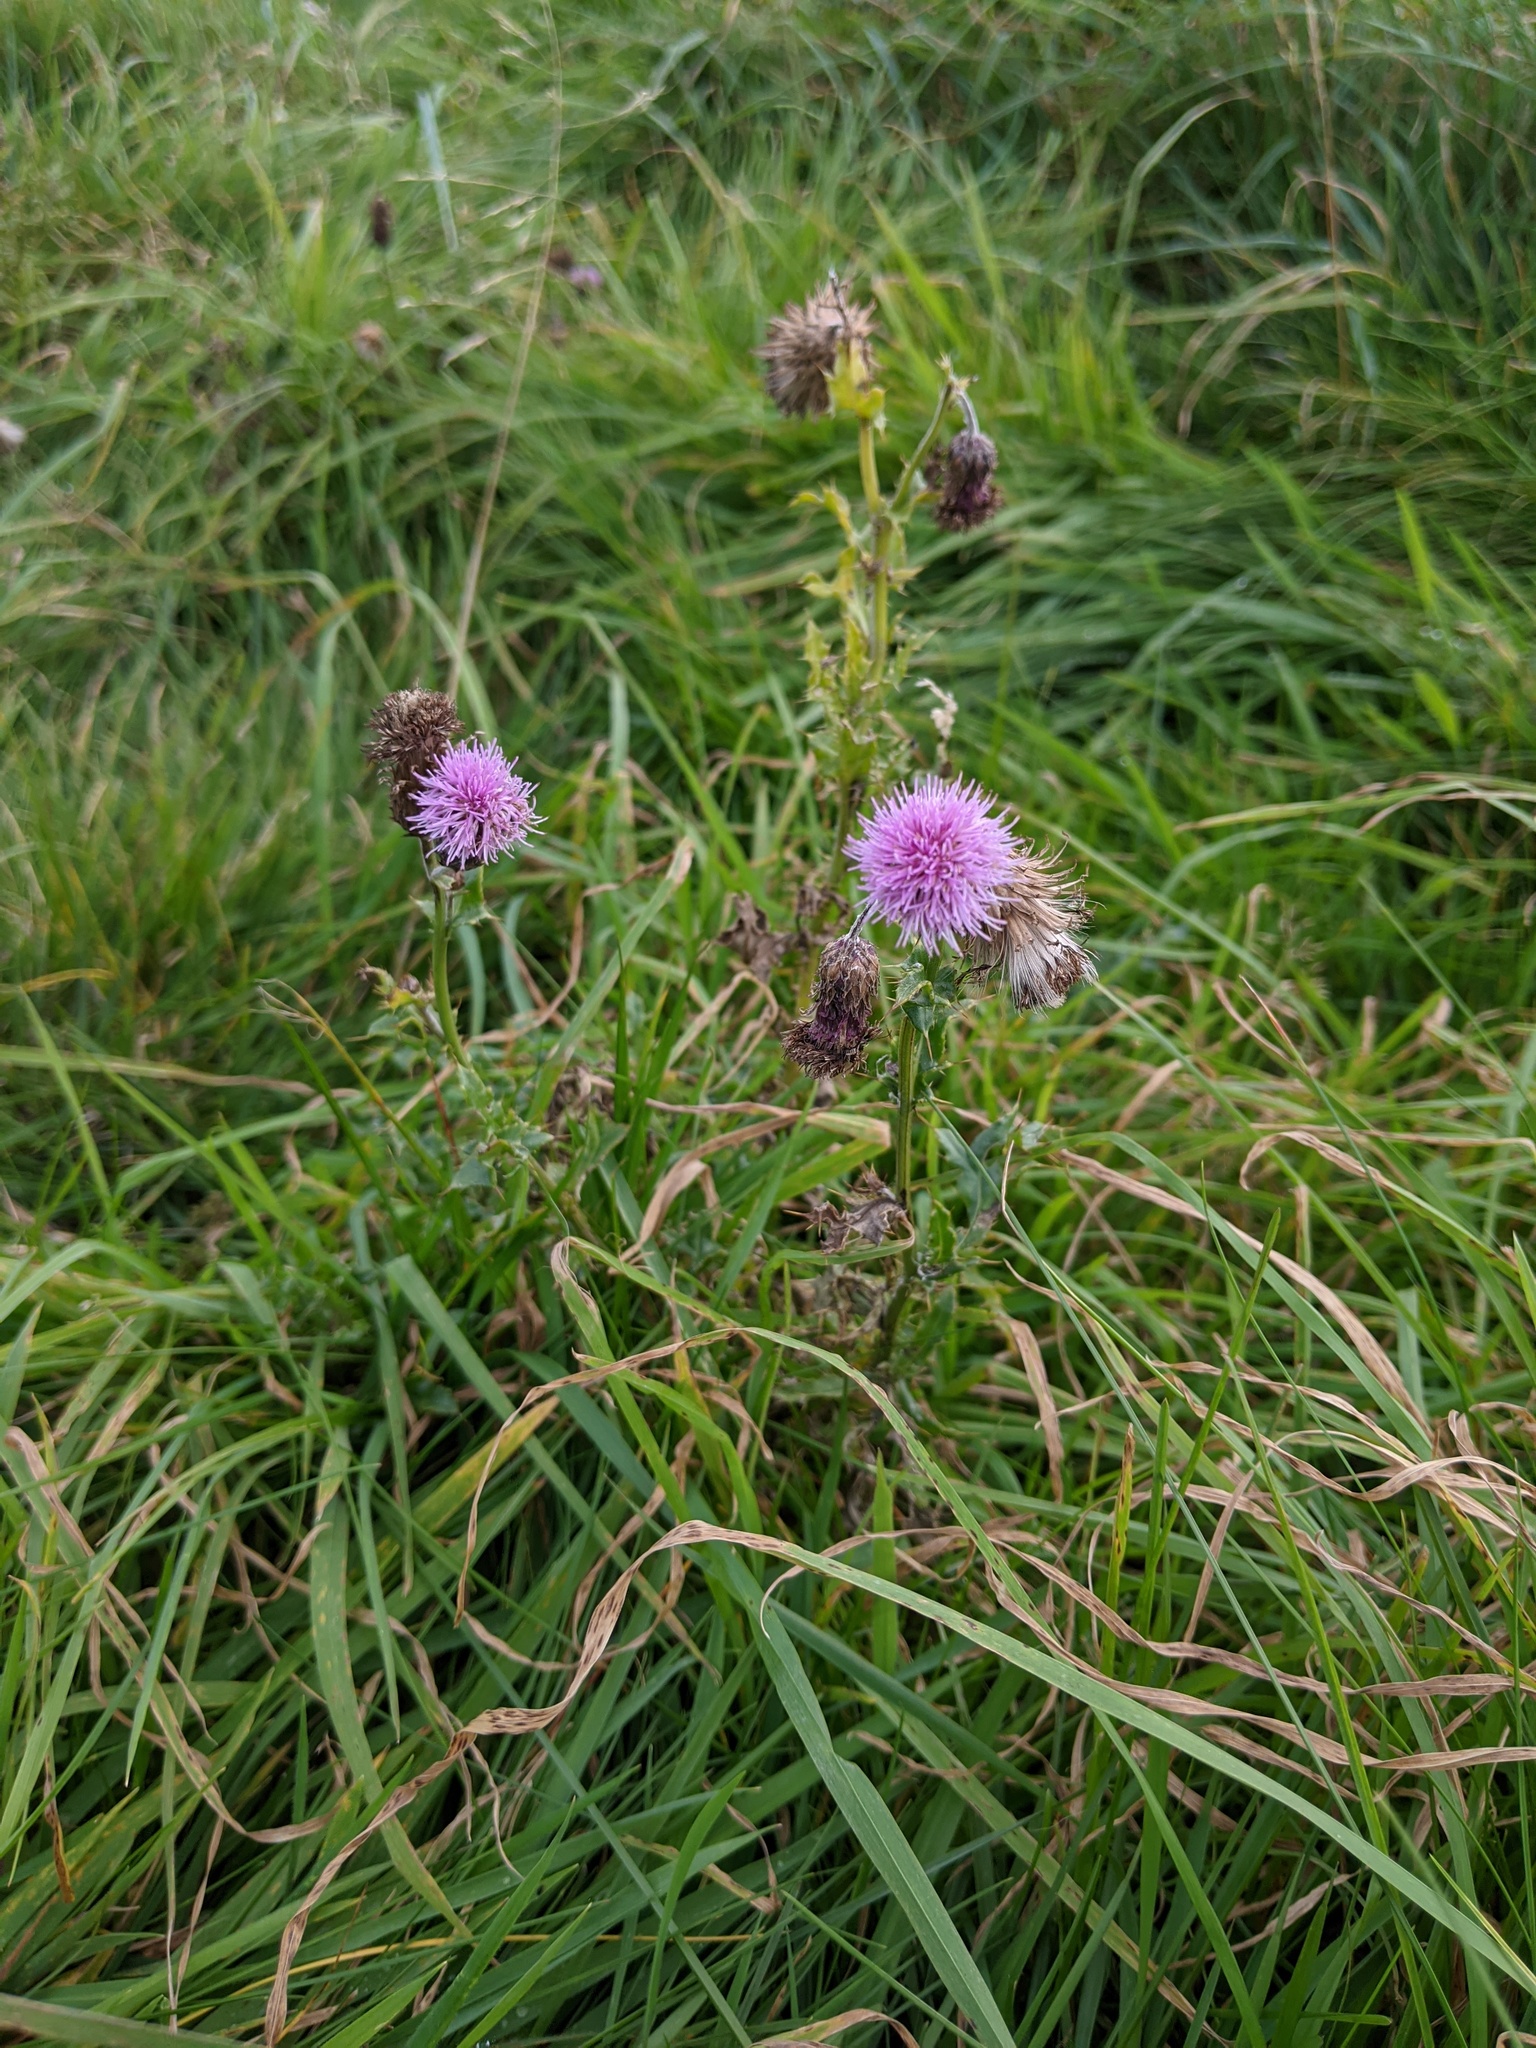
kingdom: Plantae
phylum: Tracheophyta
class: Magnoliopsida
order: Asterales
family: Asteraceae
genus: Cirsium
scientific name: Cirsium arvense
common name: Creeping thistle
